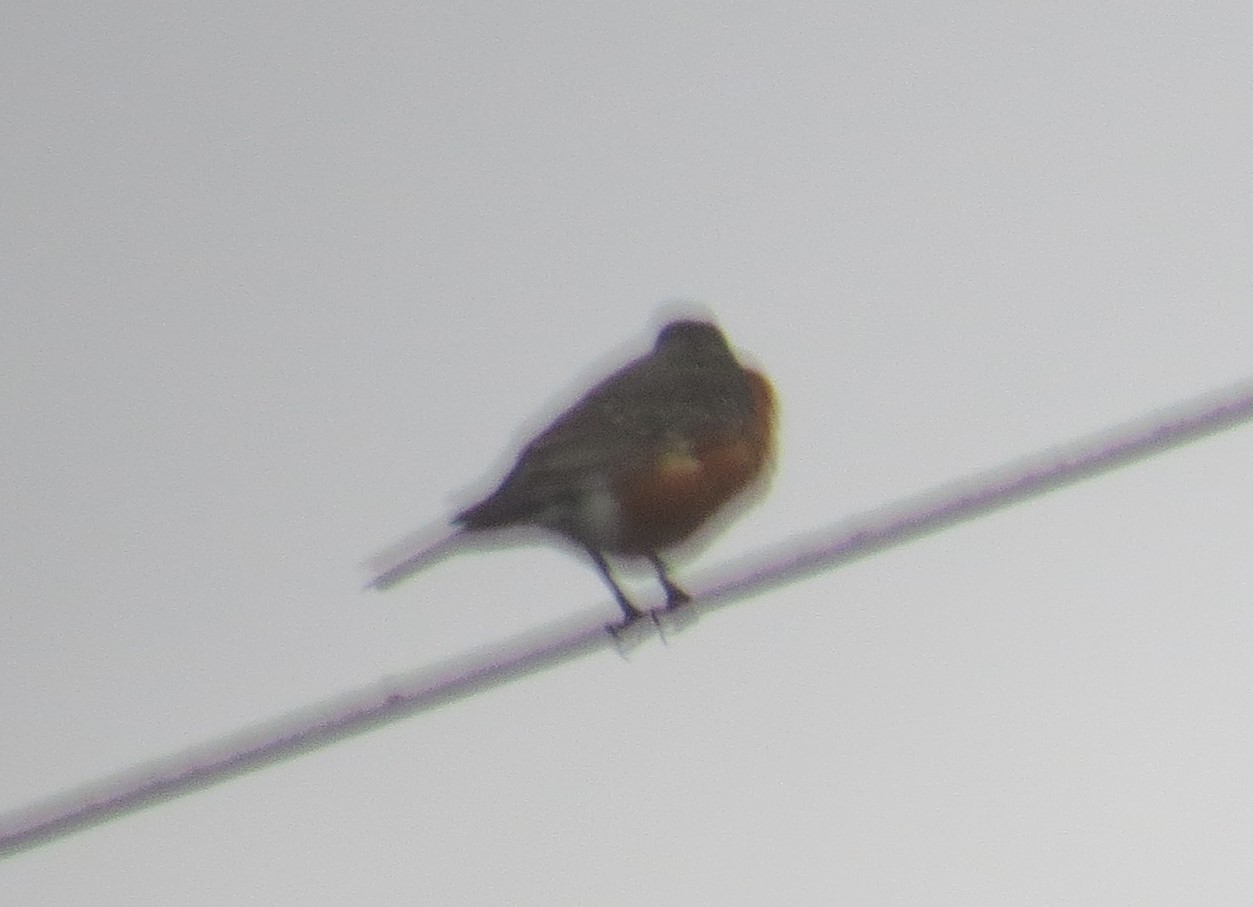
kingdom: Animalia
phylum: Chordata
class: Aves
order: Passeriformes
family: Turdidae
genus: Turdus
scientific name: Turdus migratorius
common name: American robin
